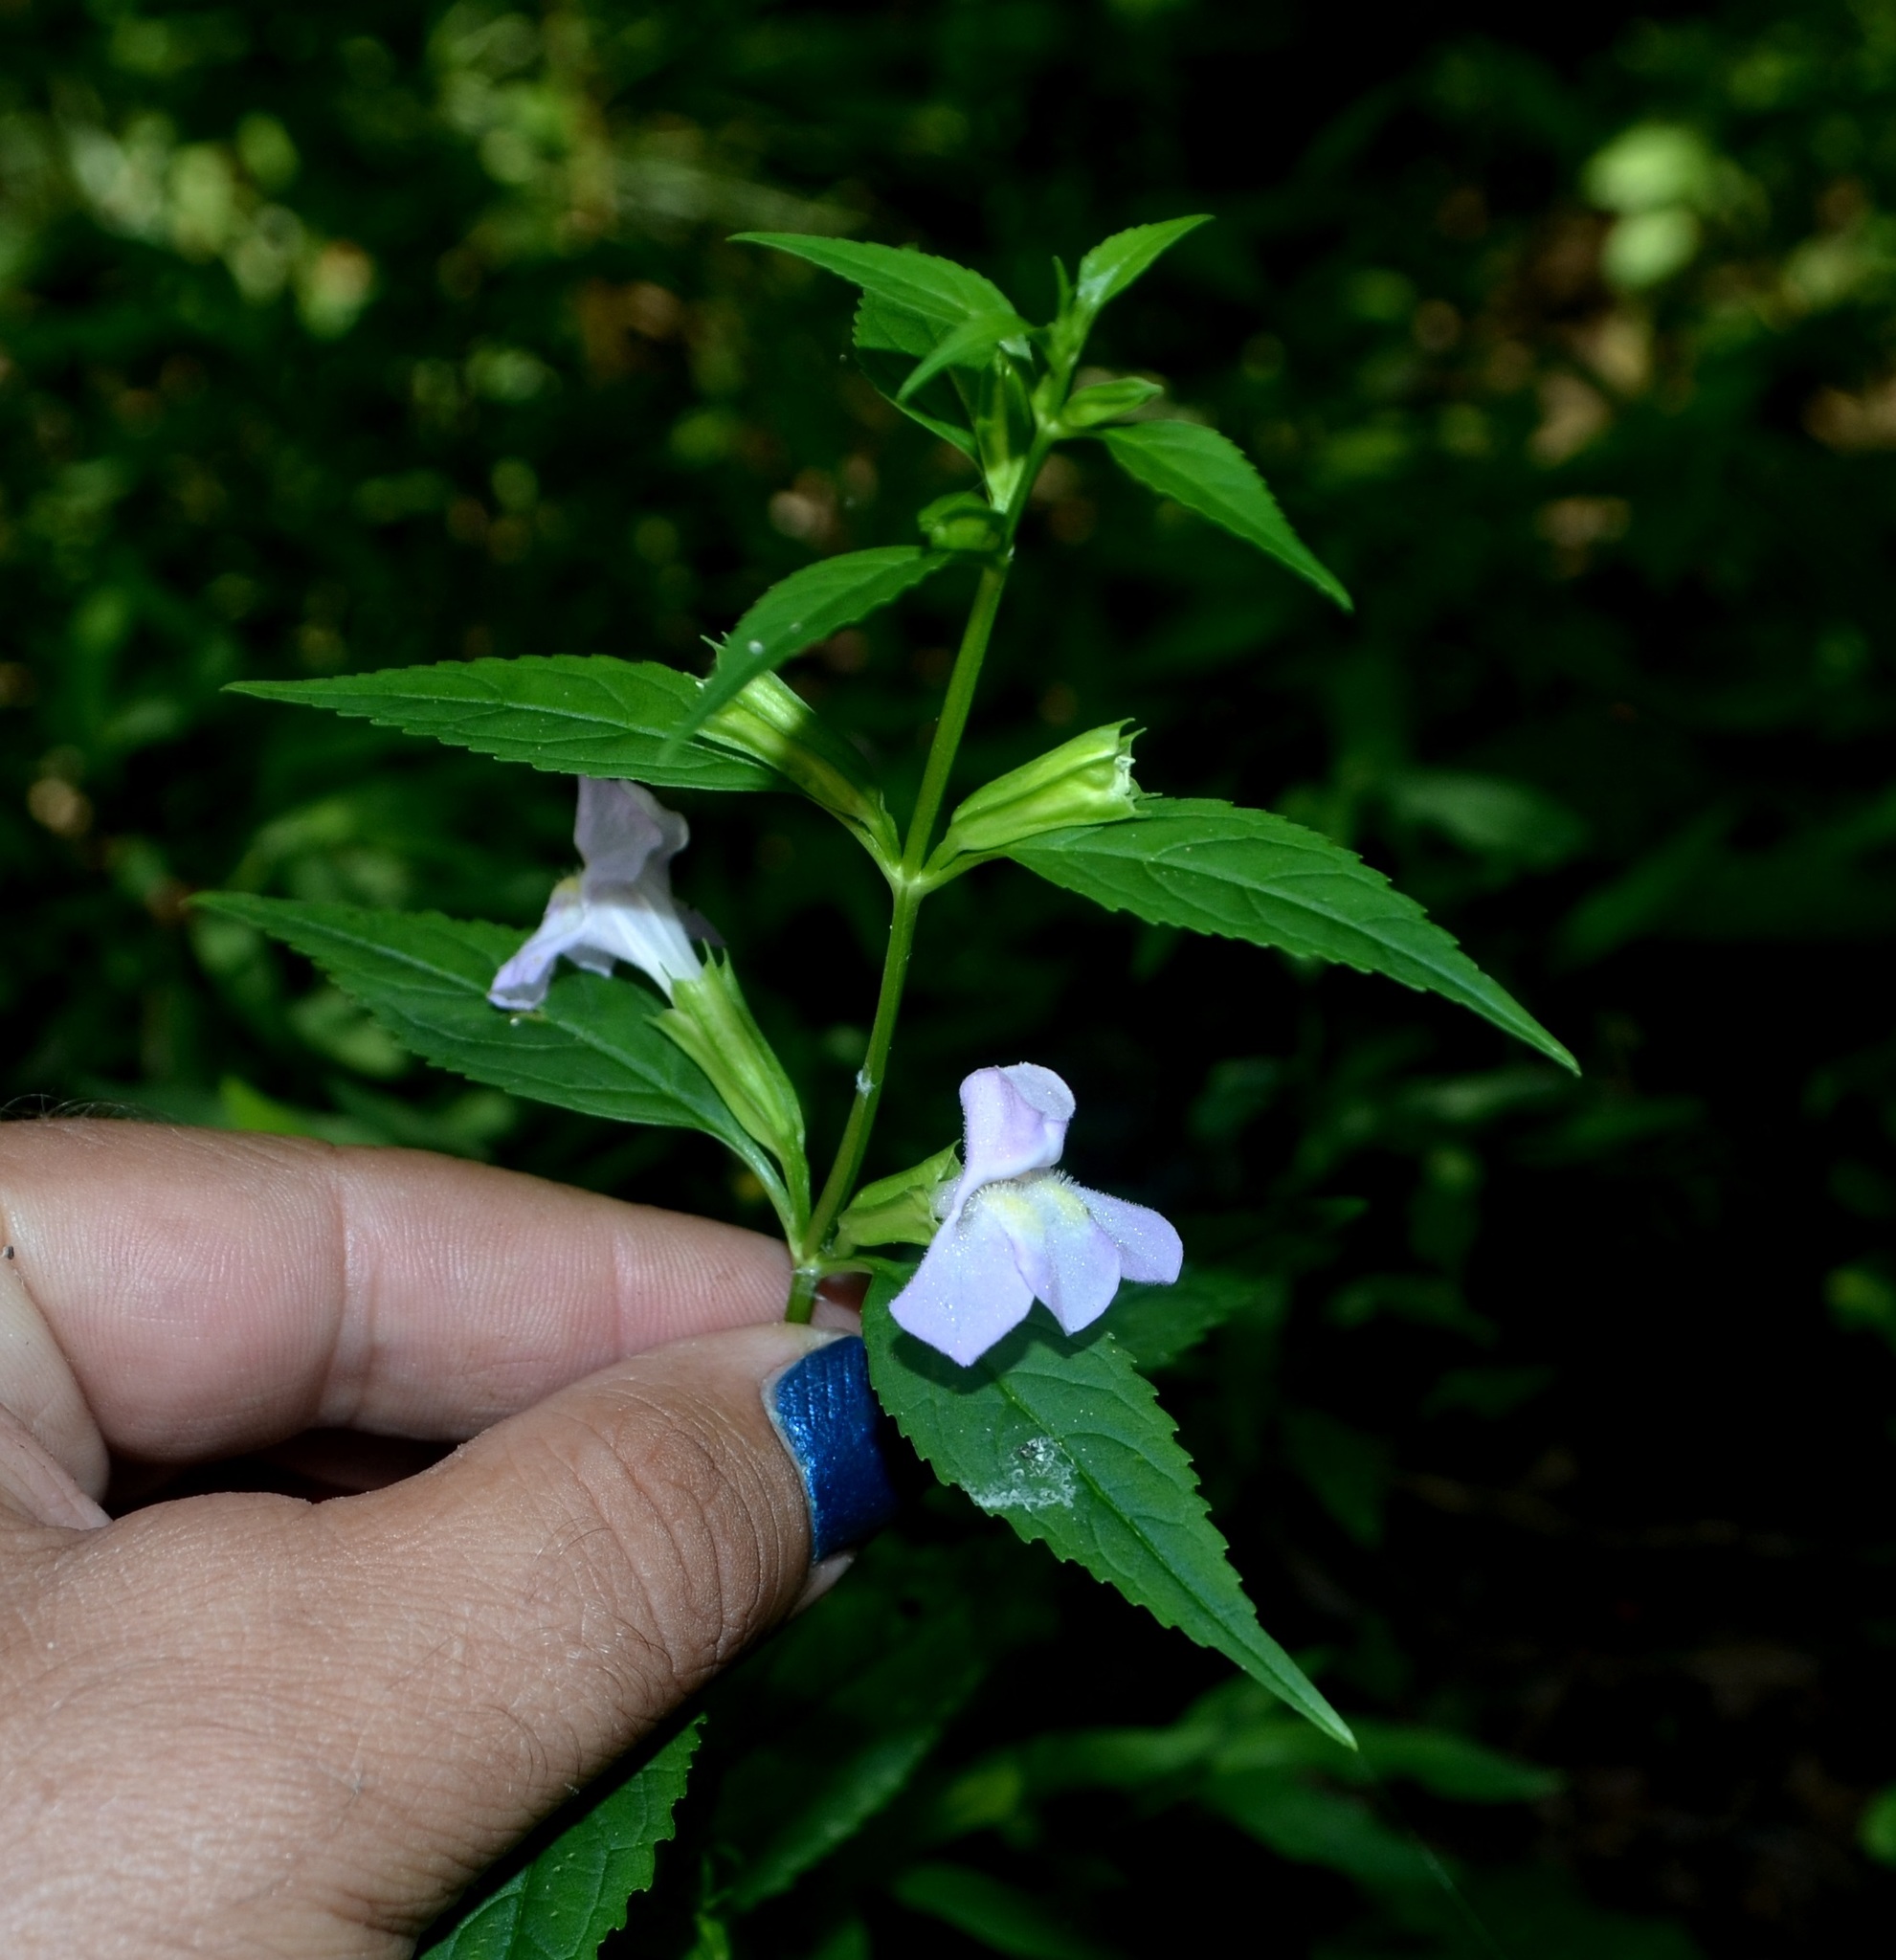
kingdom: Plantae
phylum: Tracheophyta
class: Magnoliopsida
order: Lamiales
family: Phrymaceae
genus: Mimulus
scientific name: Mimulus alatus
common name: Sharp-wing monkey-flower
